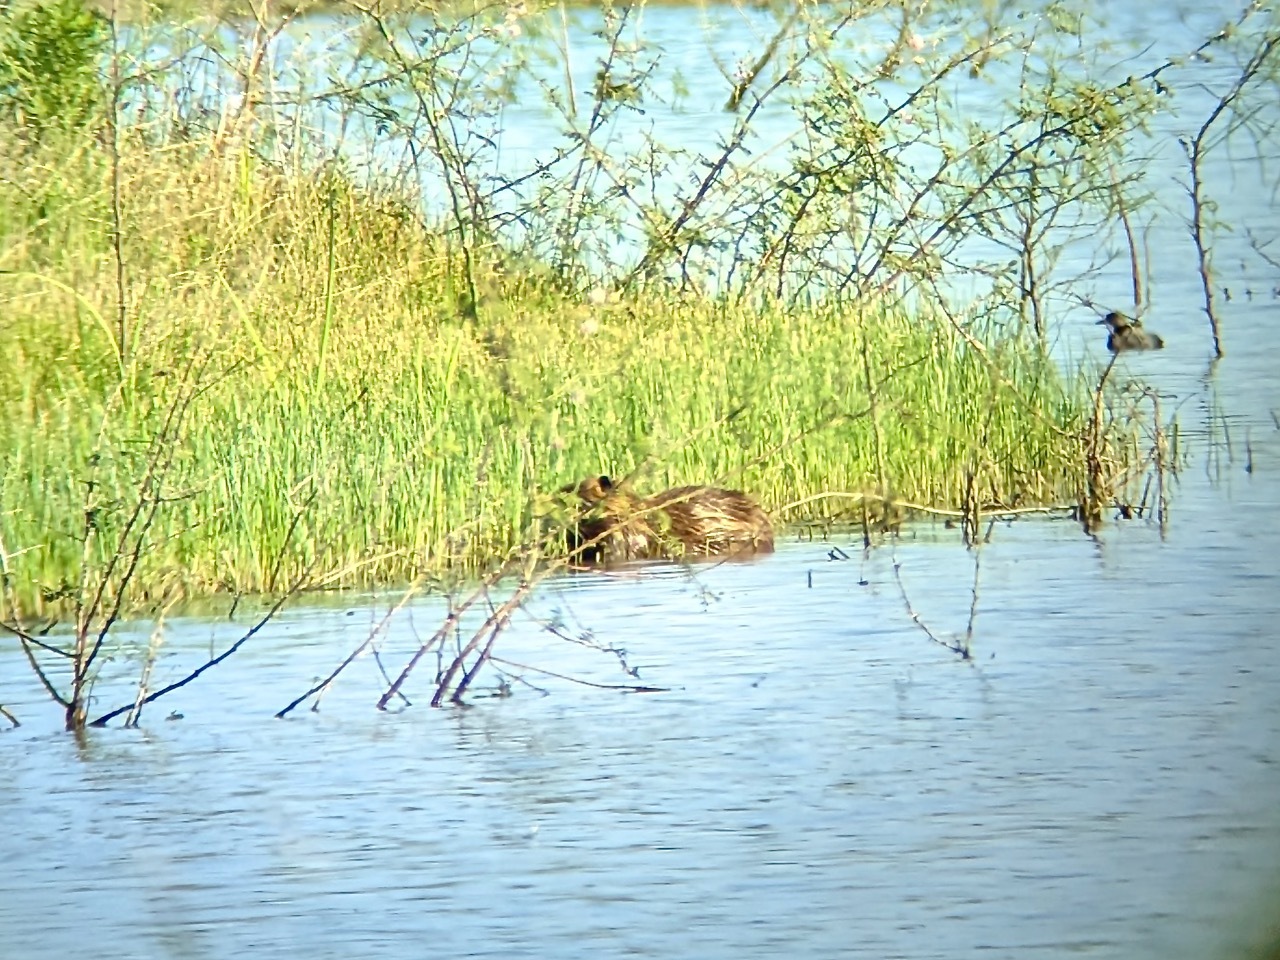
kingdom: Animalia
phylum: Chordata
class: Mammalia
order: Rodentia
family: Myocastoridae
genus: Myocastor
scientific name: Myocastor coypus
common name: Coypu
